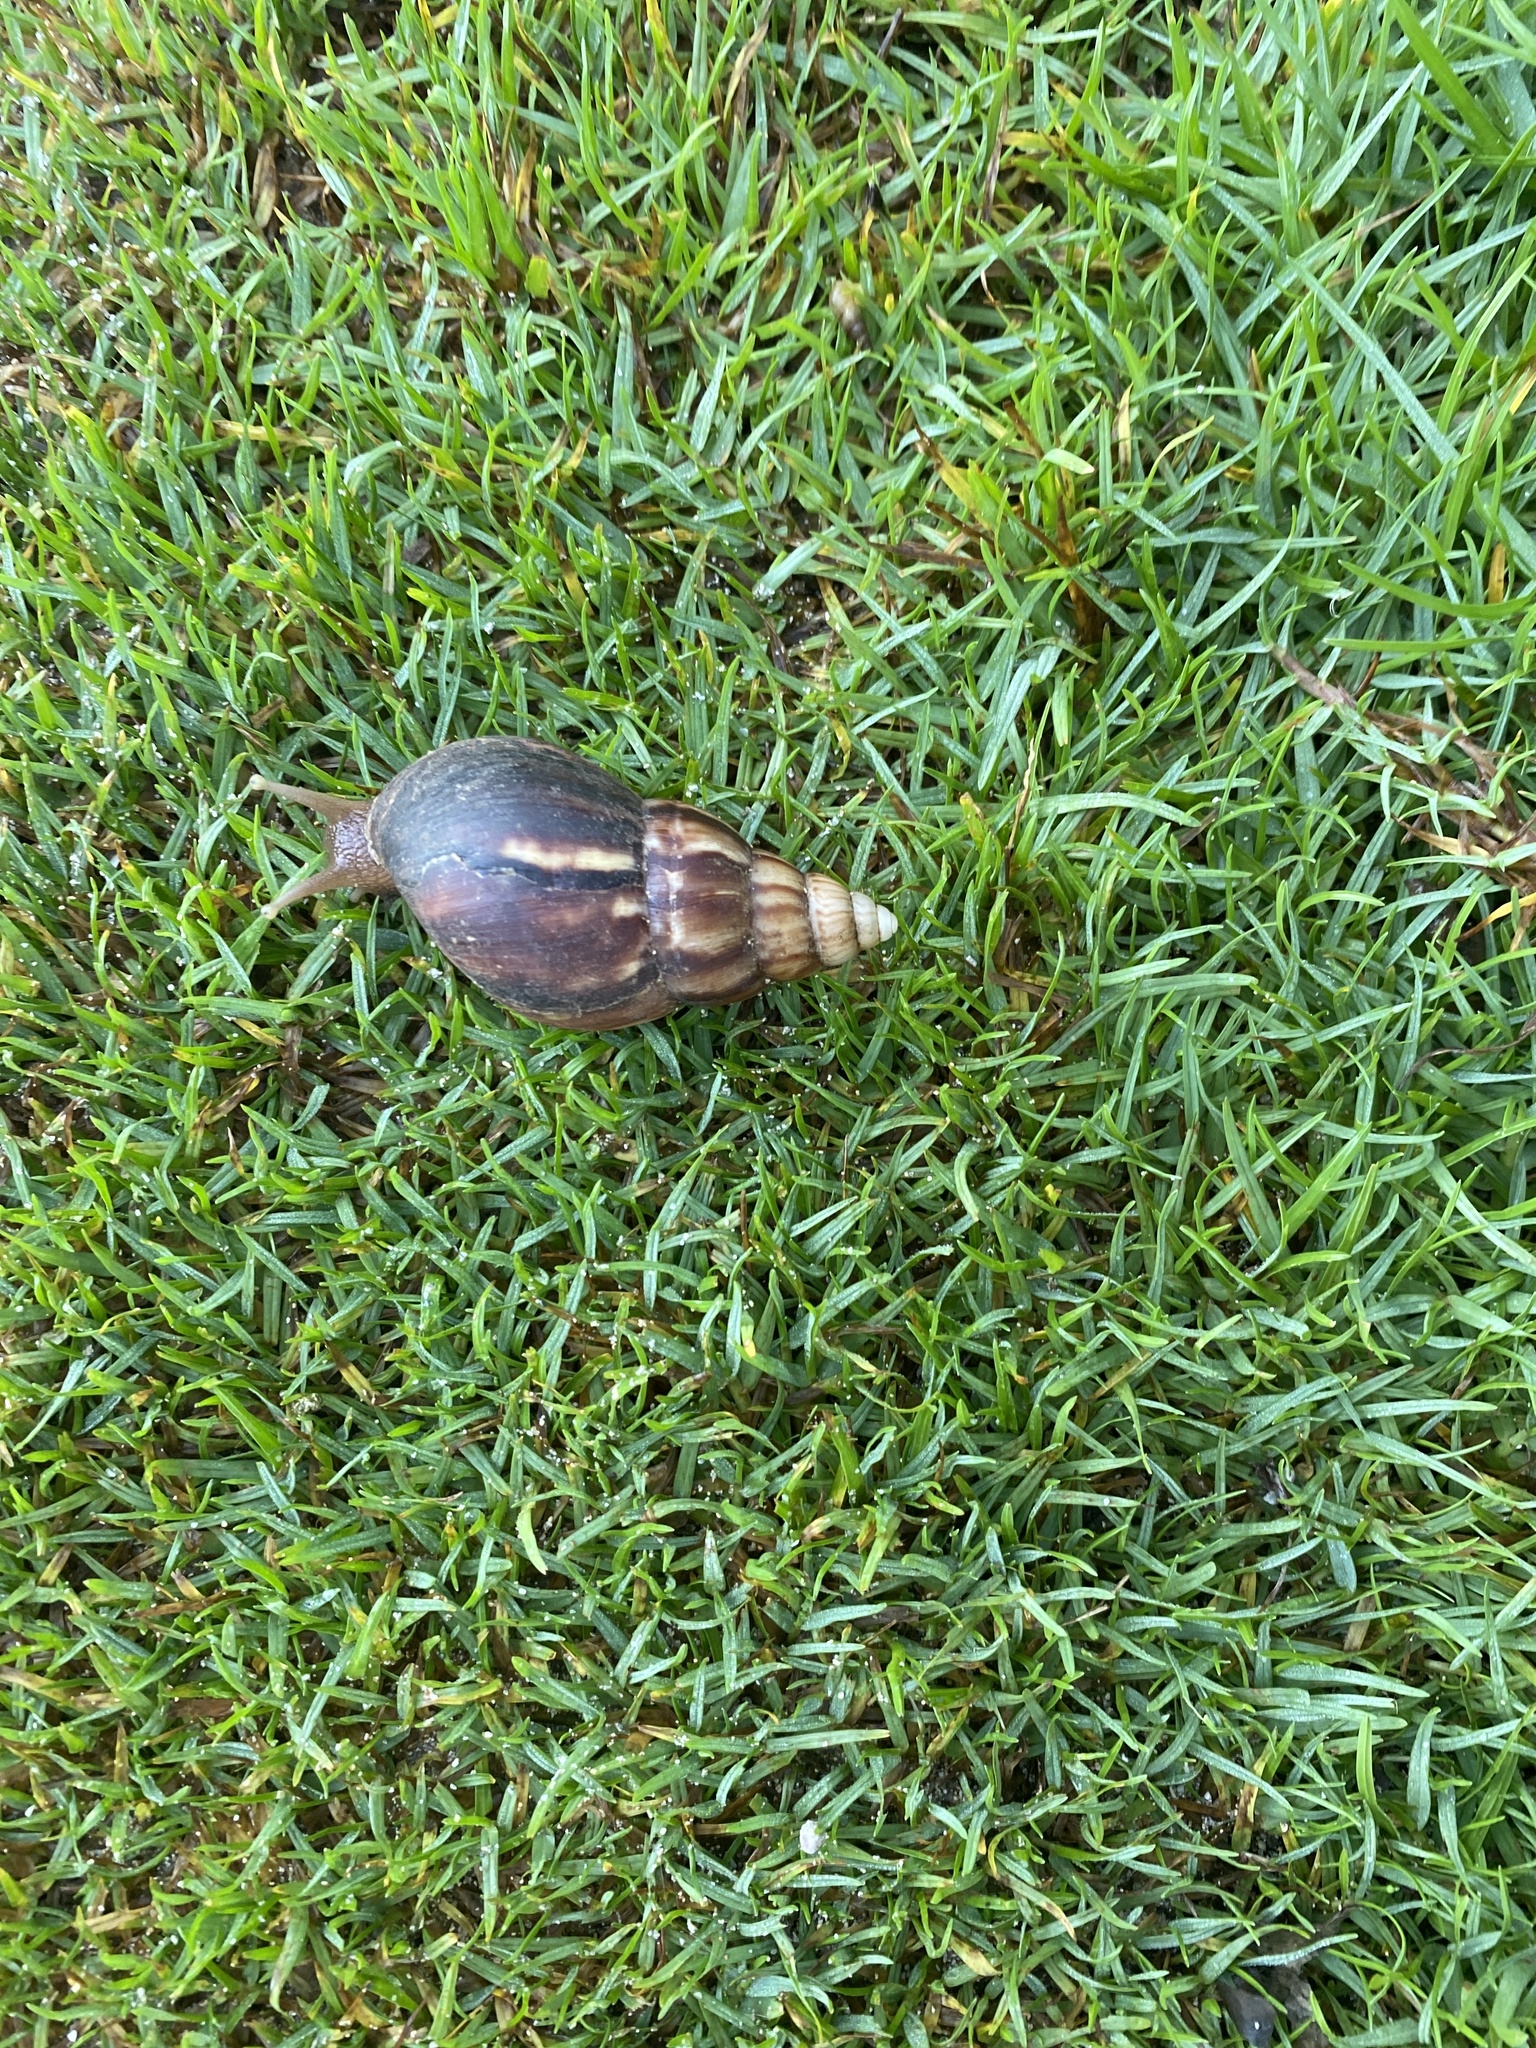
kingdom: Animalia
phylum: Mollusca
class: Gastropoda
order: Stylommatophora
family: Achatinidae
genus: Lissachatina
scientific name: Lissachatina fulica
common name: Giant african snail
